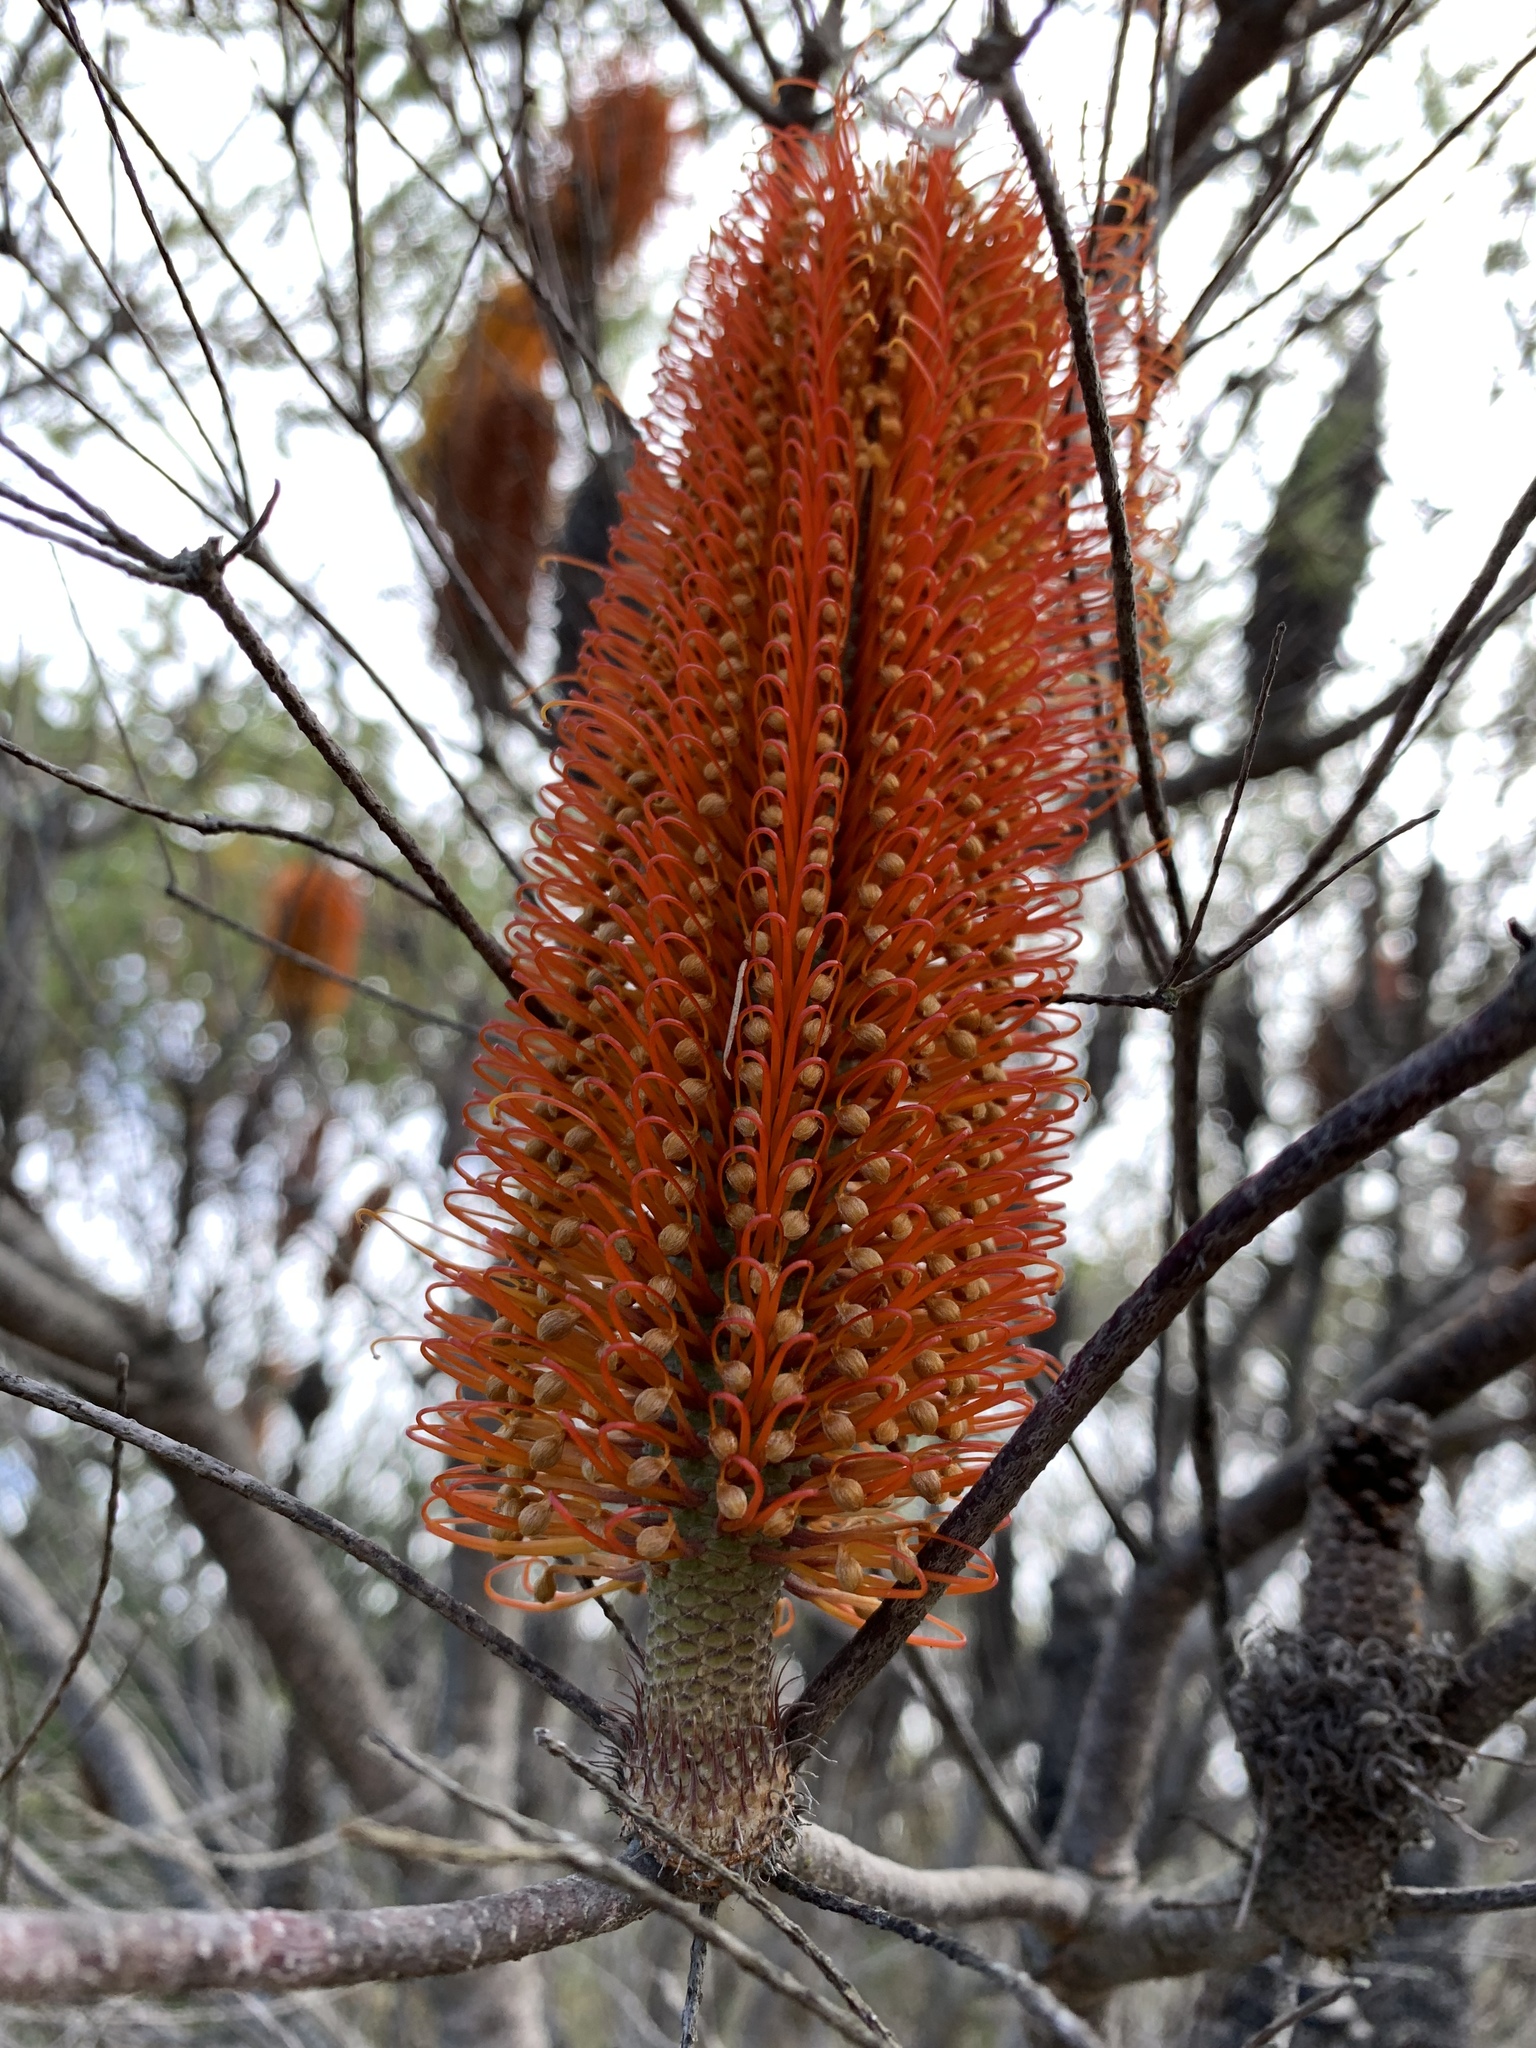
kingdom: Plantae
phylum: Tracheophyta
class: Magnoliopsida
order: Proteales
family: Proteaceae
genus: Banksia
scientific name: Banksia ericifolia
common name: Heath-leaf banksia
